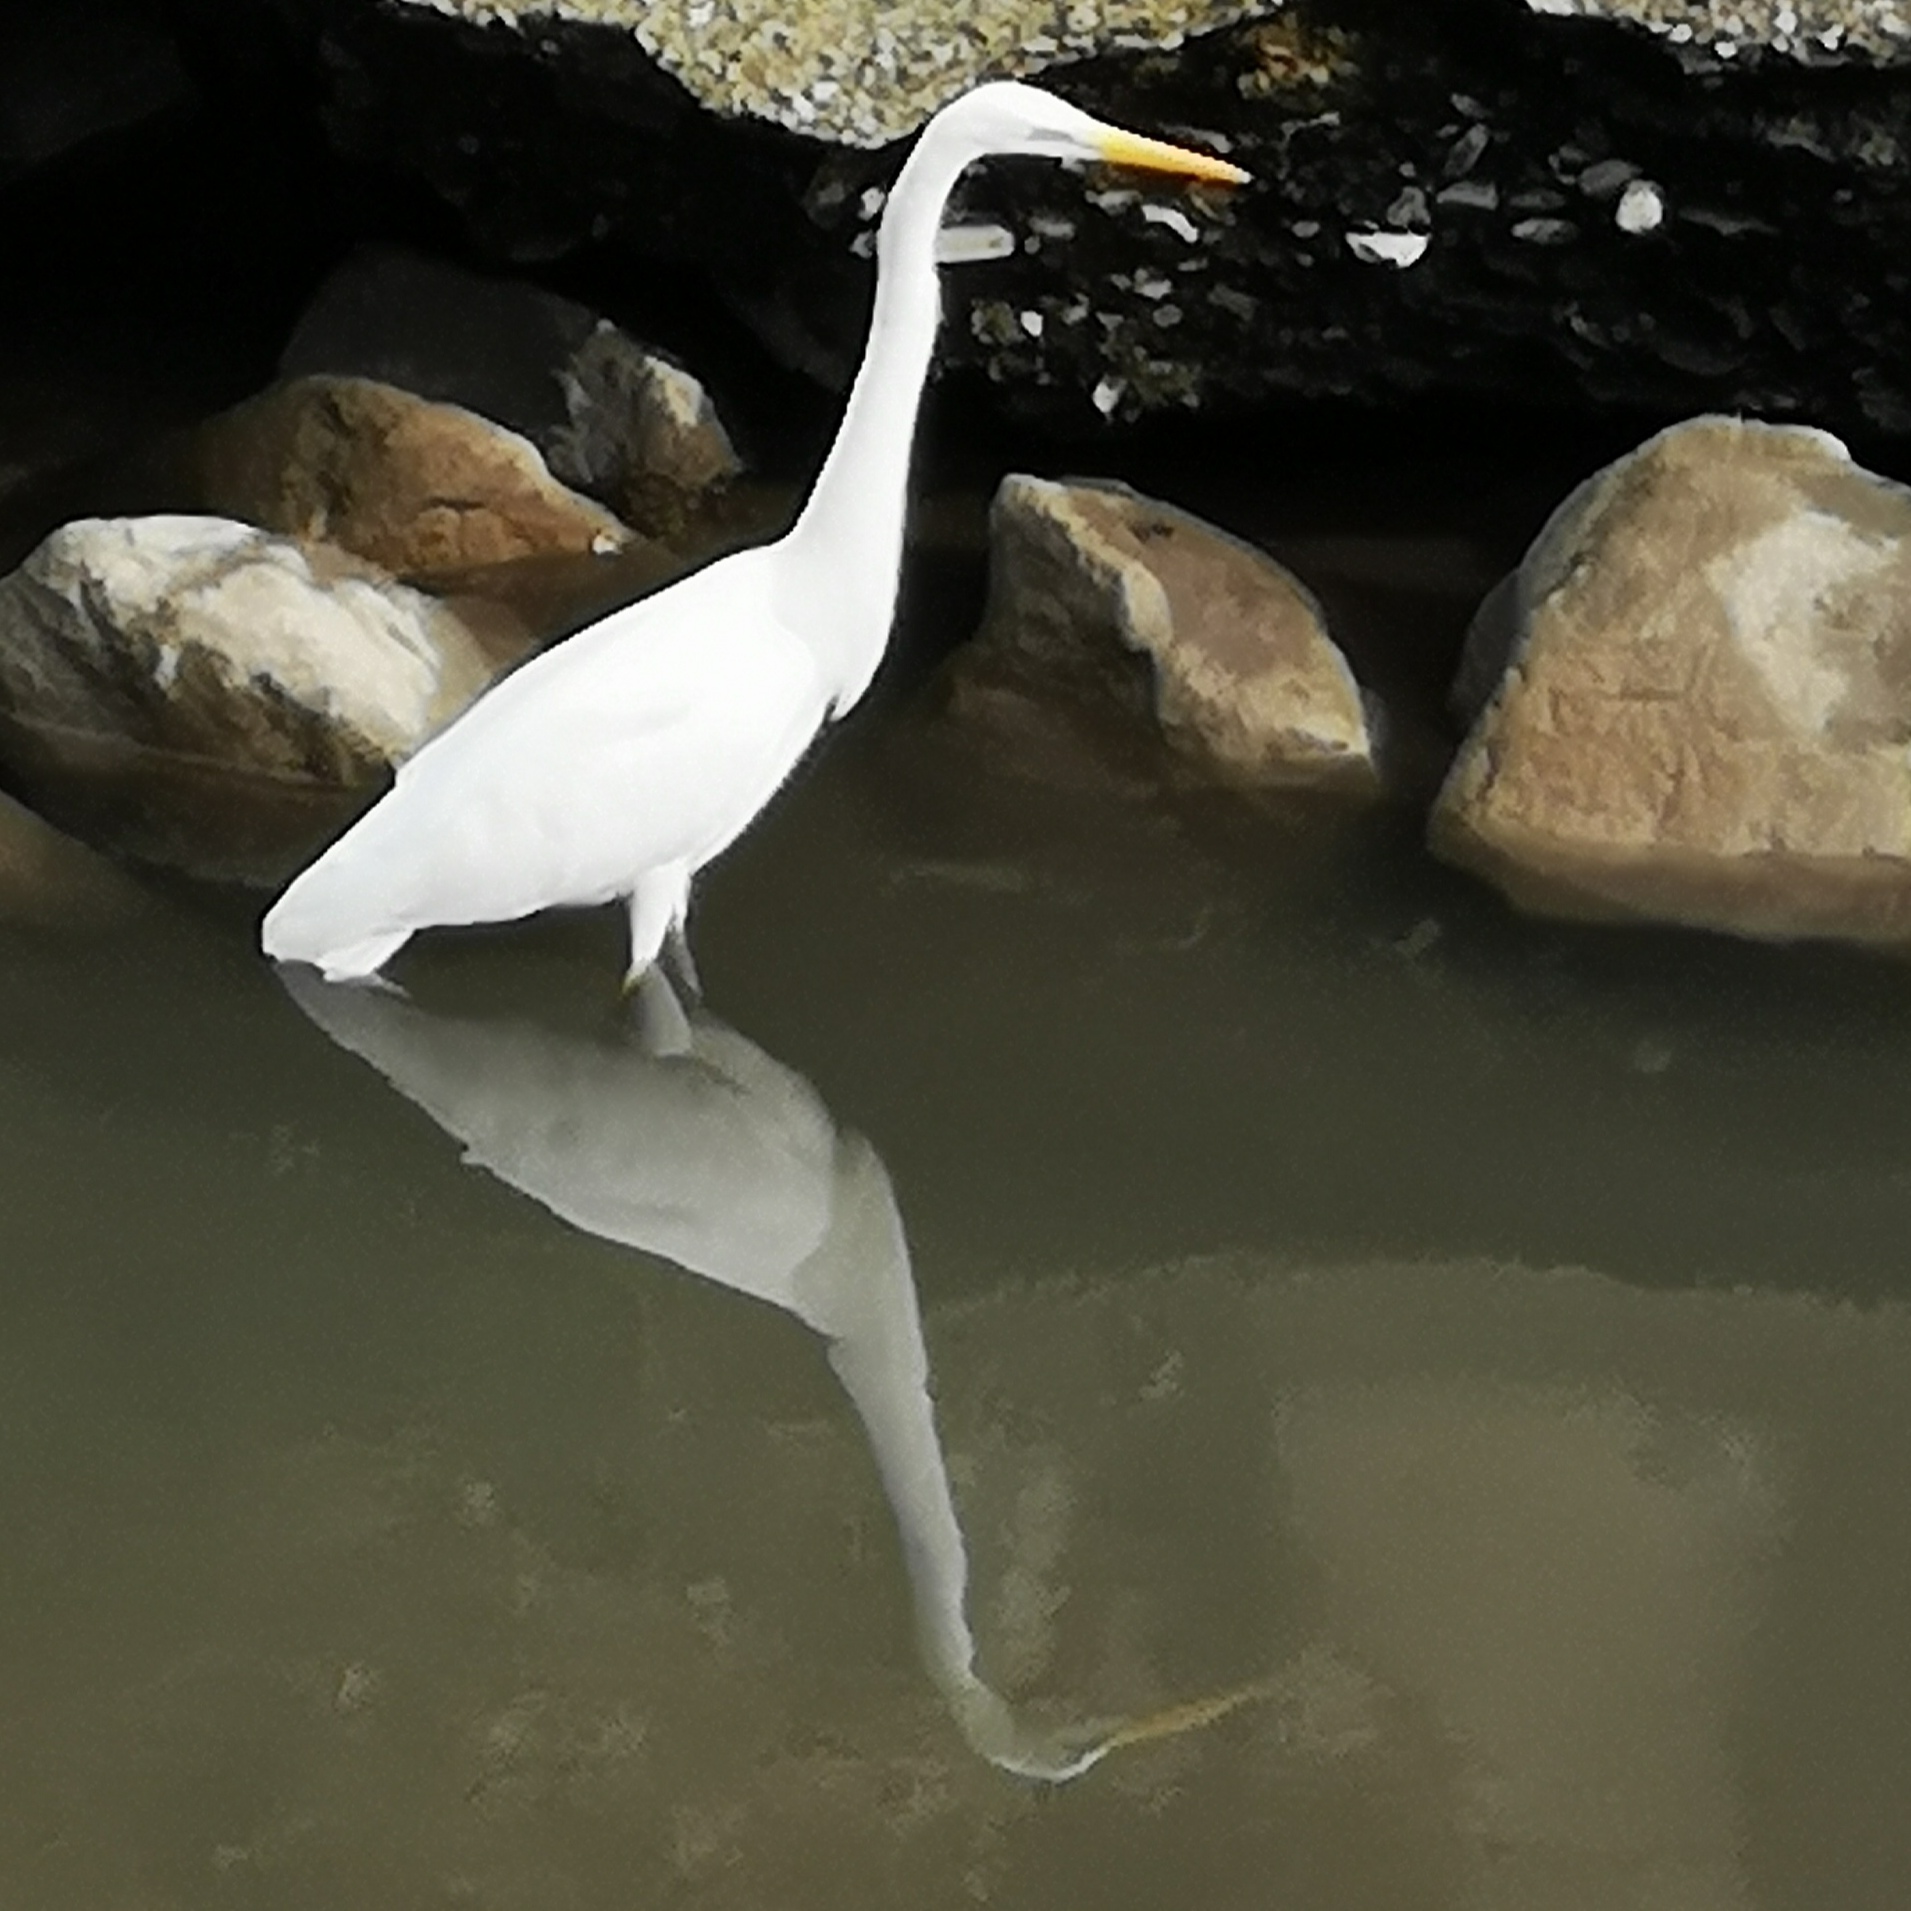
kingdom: Animalia
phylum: Chordata
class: Aves
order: Pelecaniformes
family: Ardeidae
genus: Ardea
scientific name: Ardea alba
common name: Great egret
